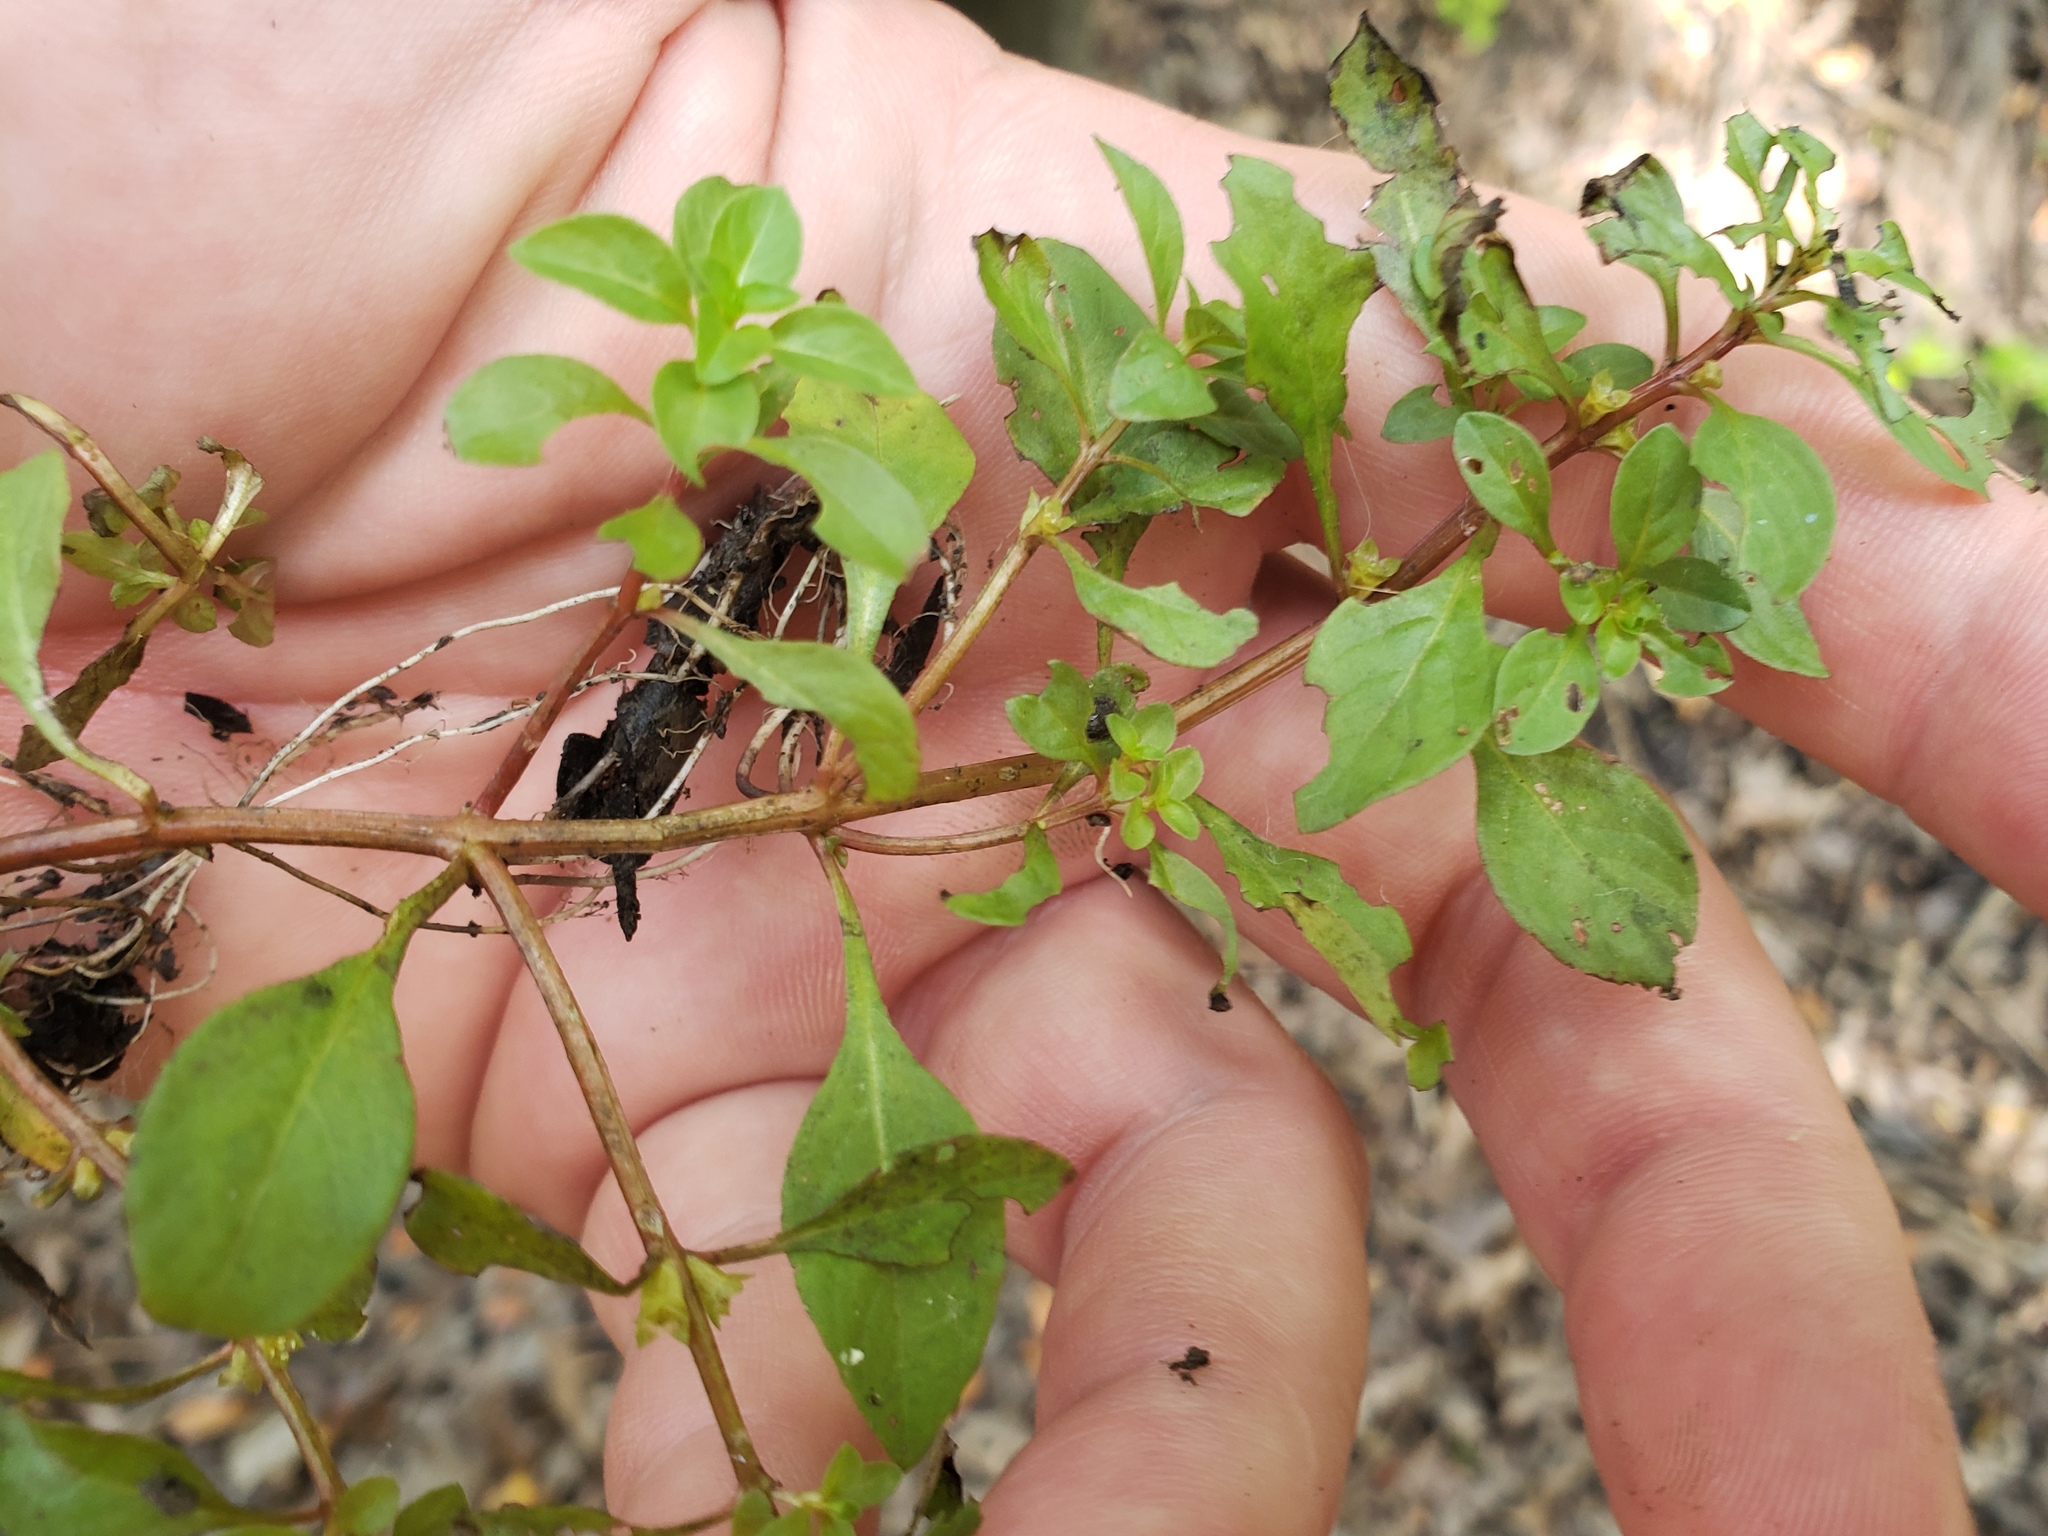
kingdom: Plantae
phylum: Tracheophyta
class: Magnoliopsida
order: Myrtales
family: Onagraceae
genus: Ludwigia
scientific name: Ludwigia palustris
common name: Hampshire-purslane
